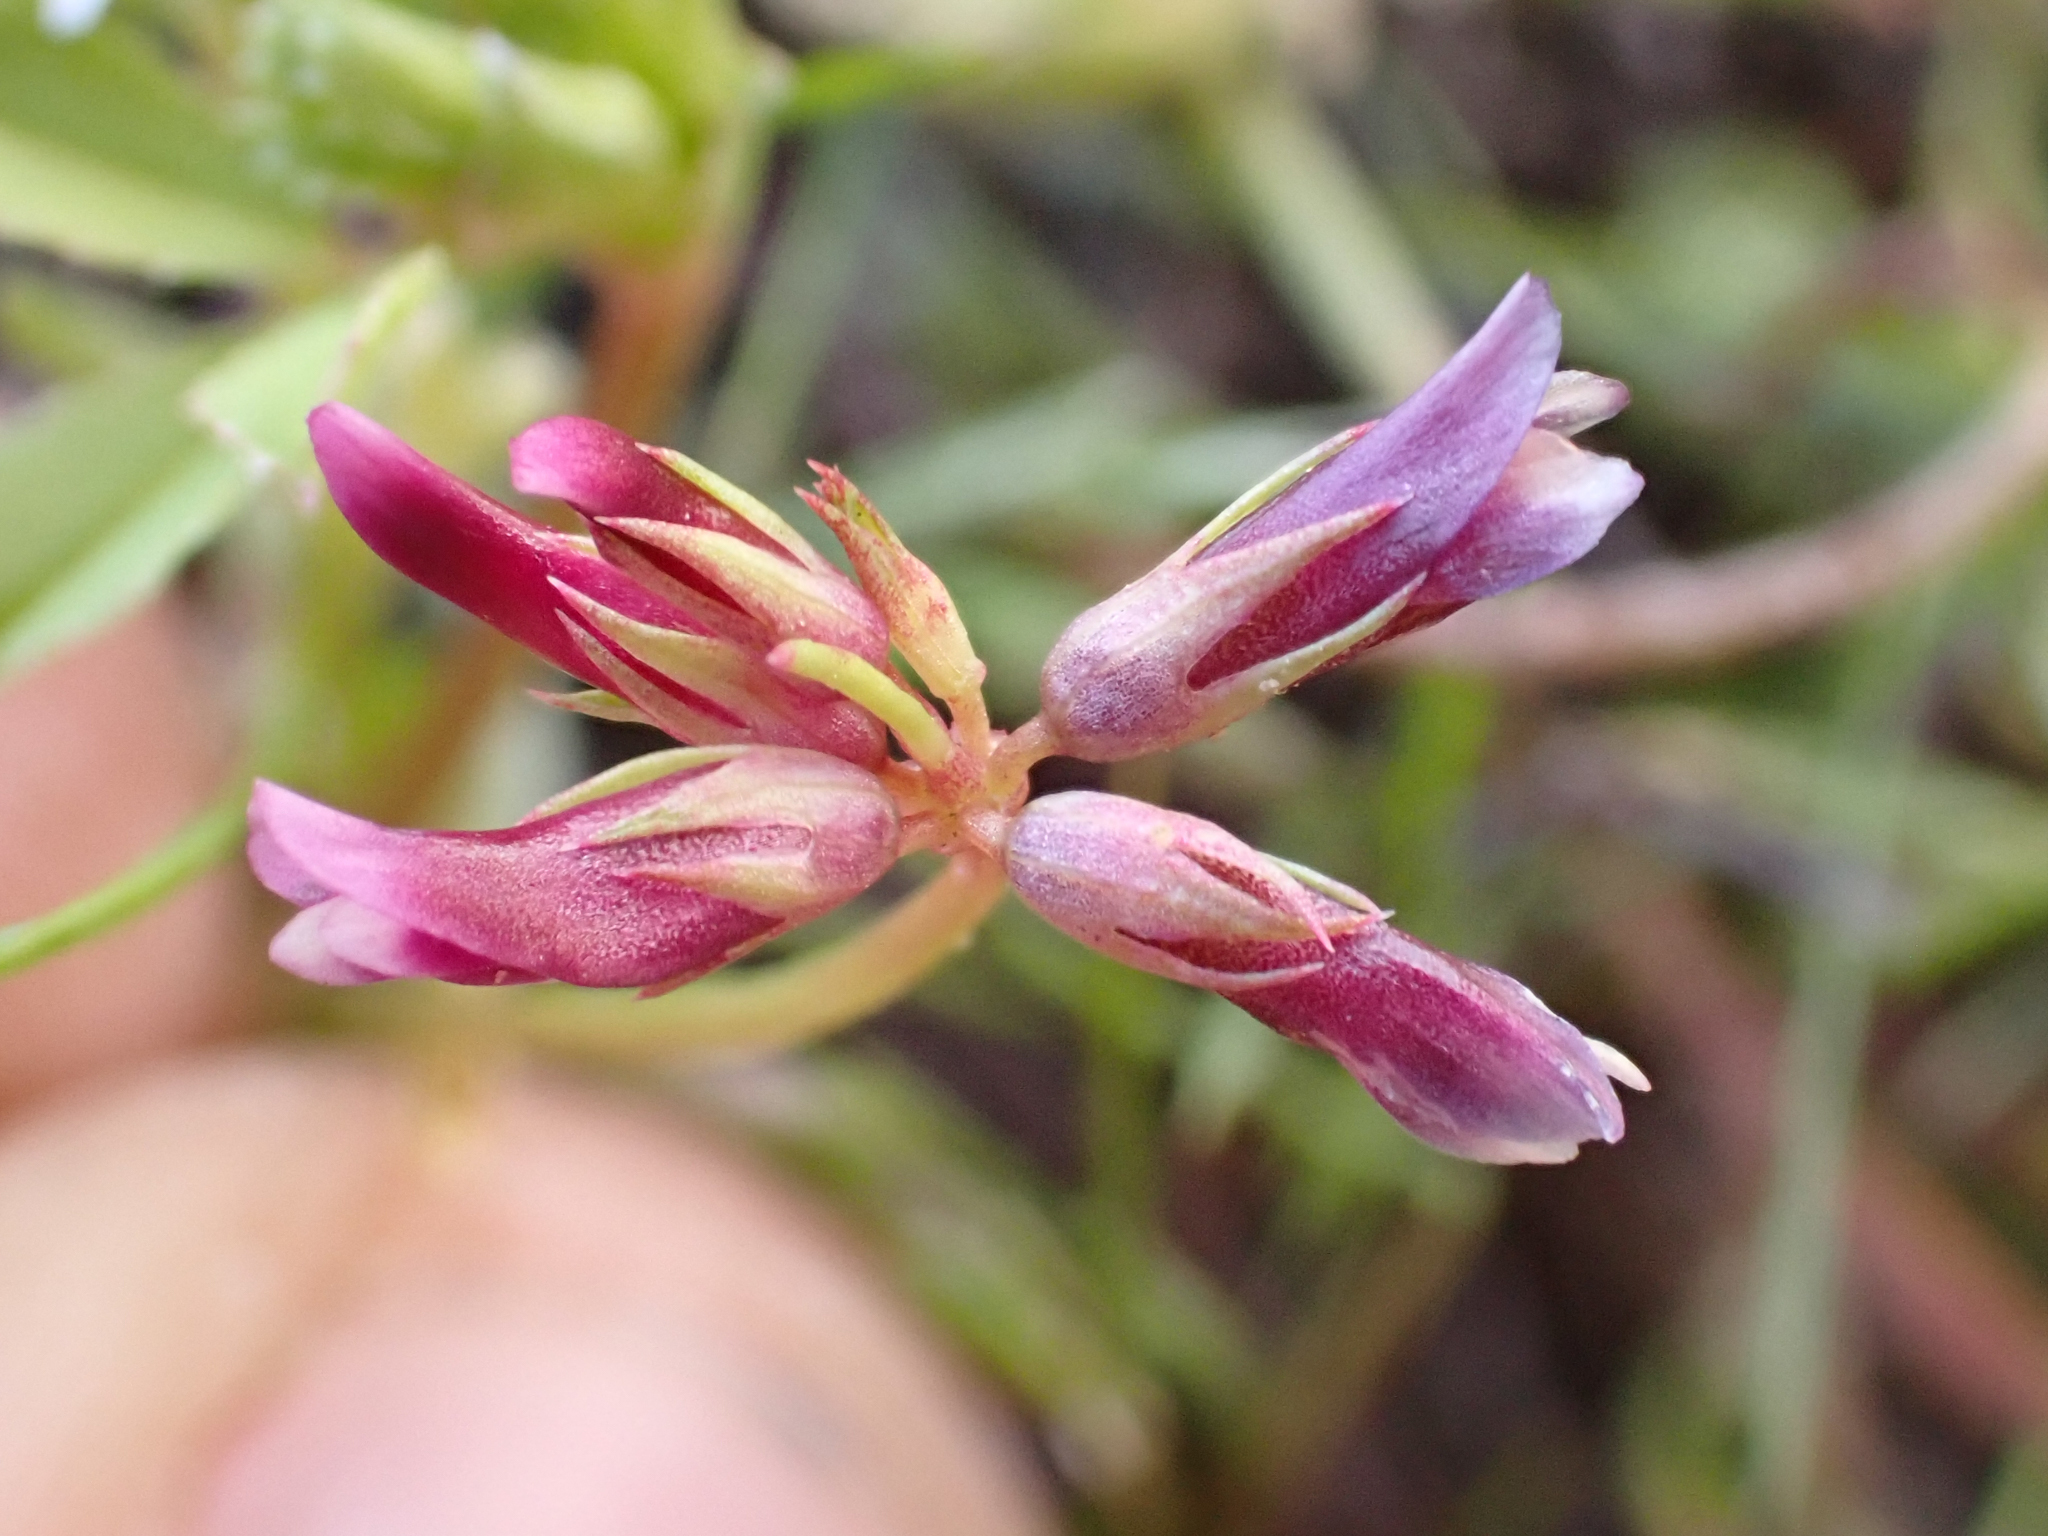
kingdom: Plantae
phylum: Tracheophyta
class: Magnoliopsida
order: Fabales
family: Fabaceae
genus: Trifolium
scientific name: Trifolium gracilentum
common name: Slender clover
